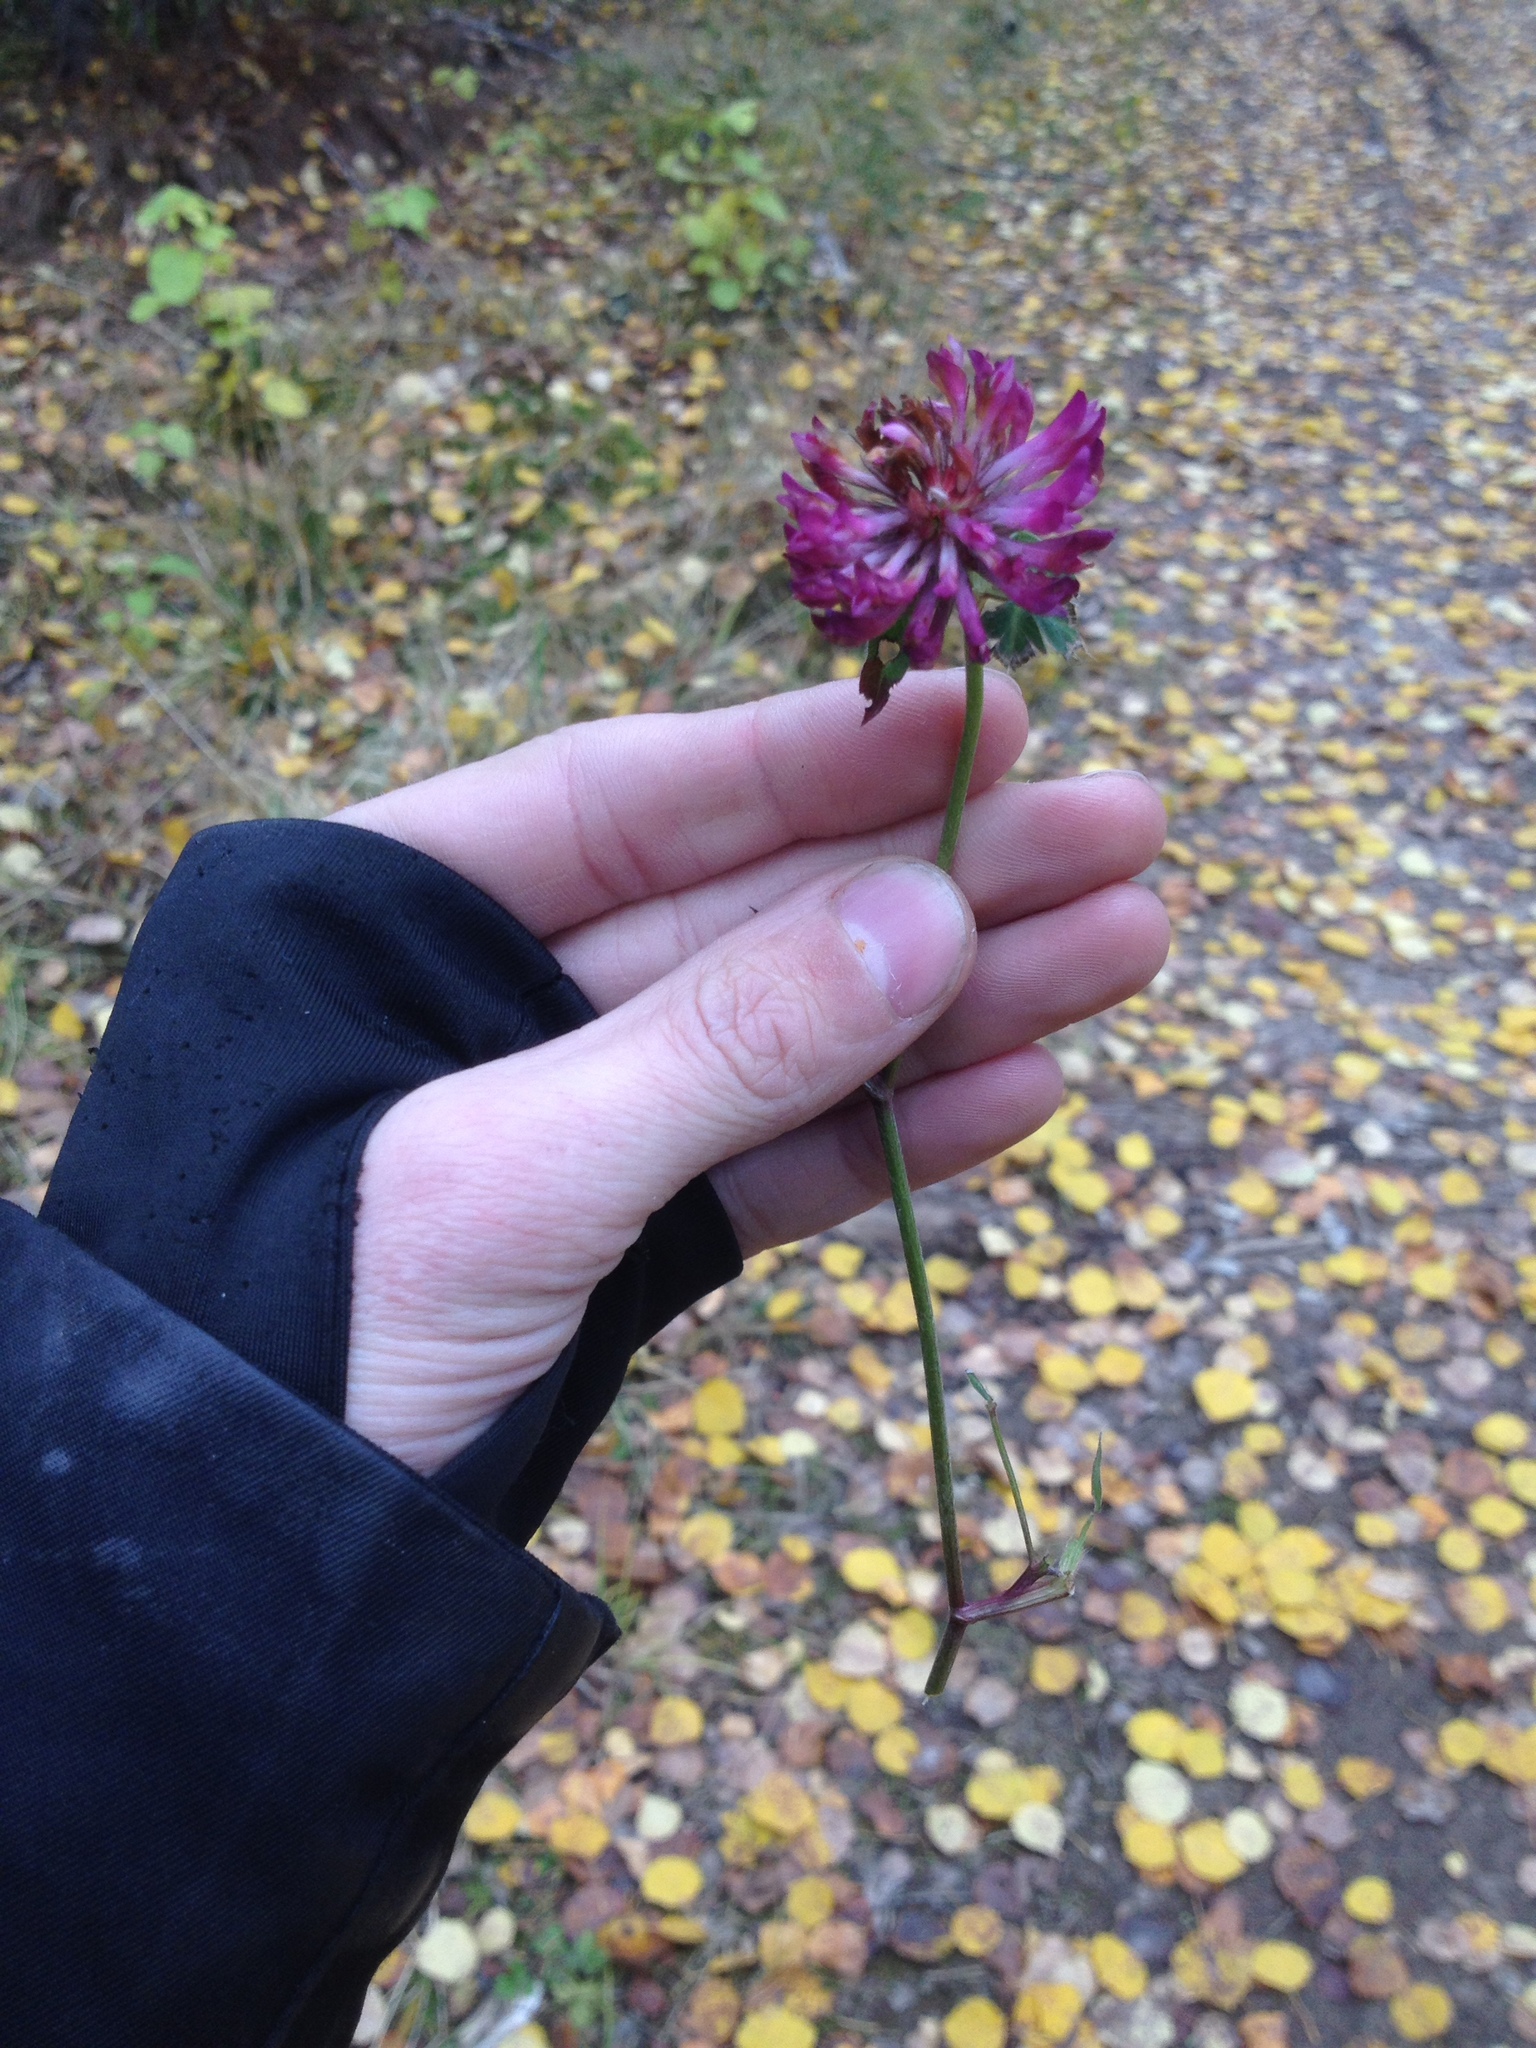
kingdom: Plantae
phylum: Tracheophyta
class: Magnoliopsida
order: Fabales
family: Fabaceae
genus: Trifolium
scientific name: Trifolium medium
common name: Zigzag clover
